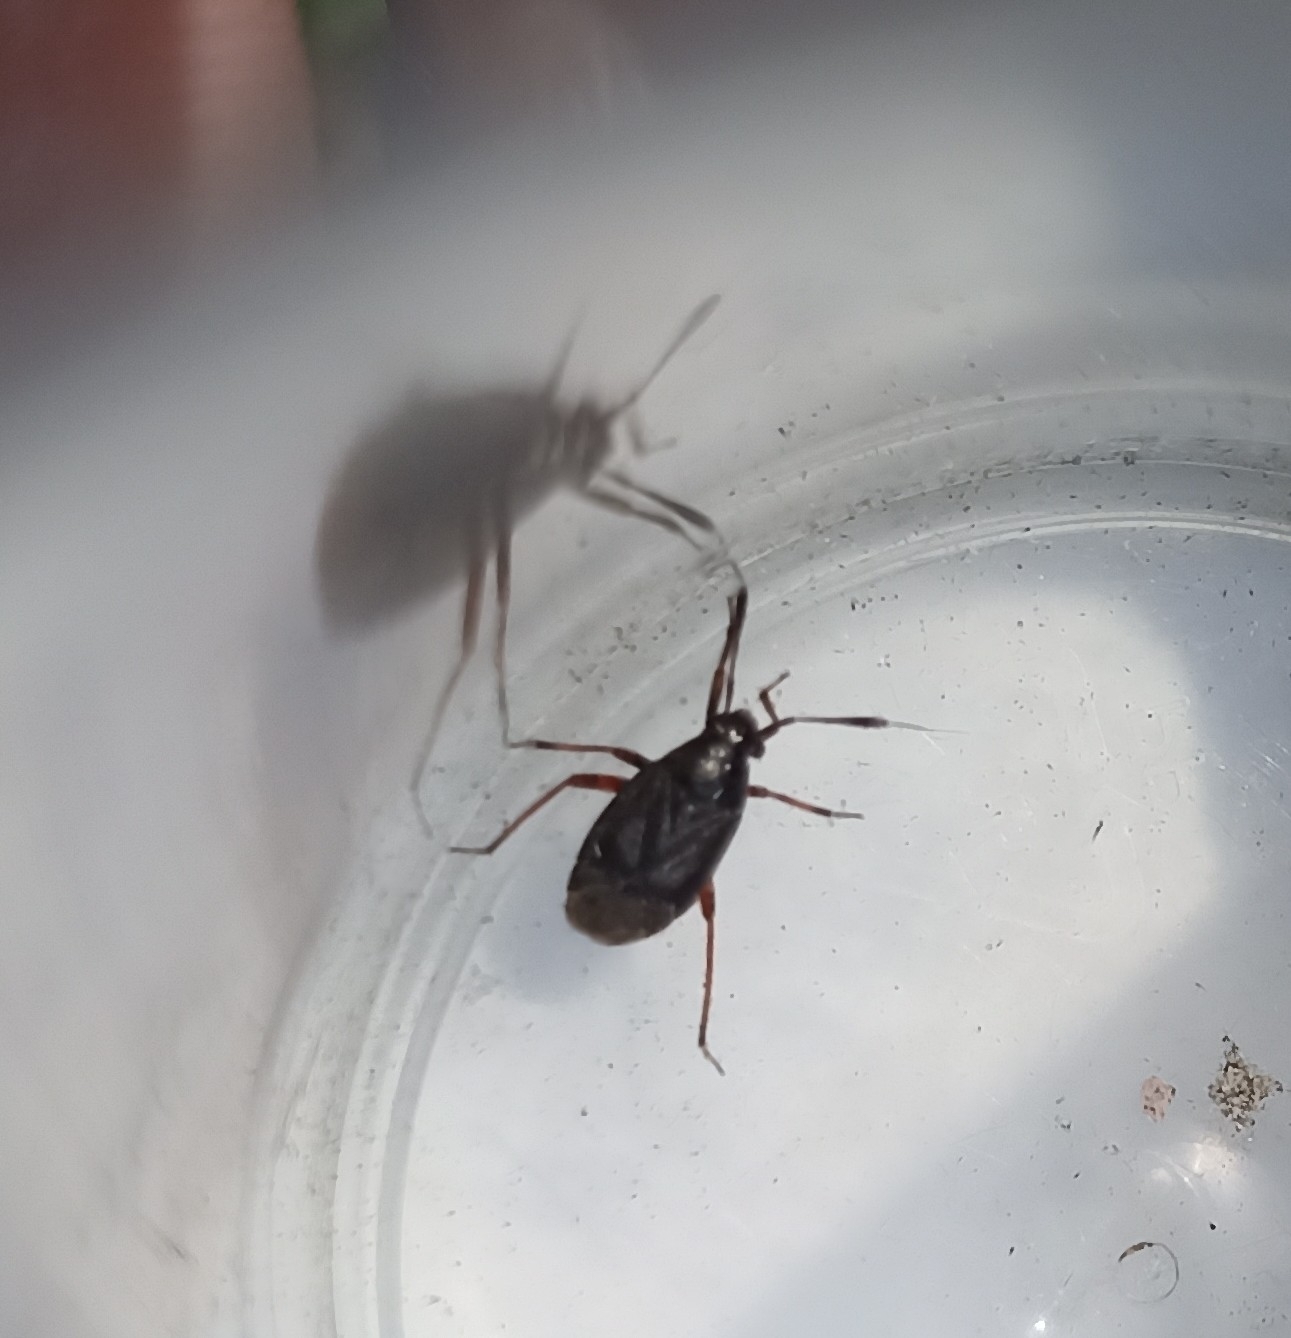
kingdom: Animalia
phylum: Arthropoda
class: Insecta
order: Hemiptera
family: Miridae
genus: Capsus
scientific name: Capsus ater
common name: Black plant bug
